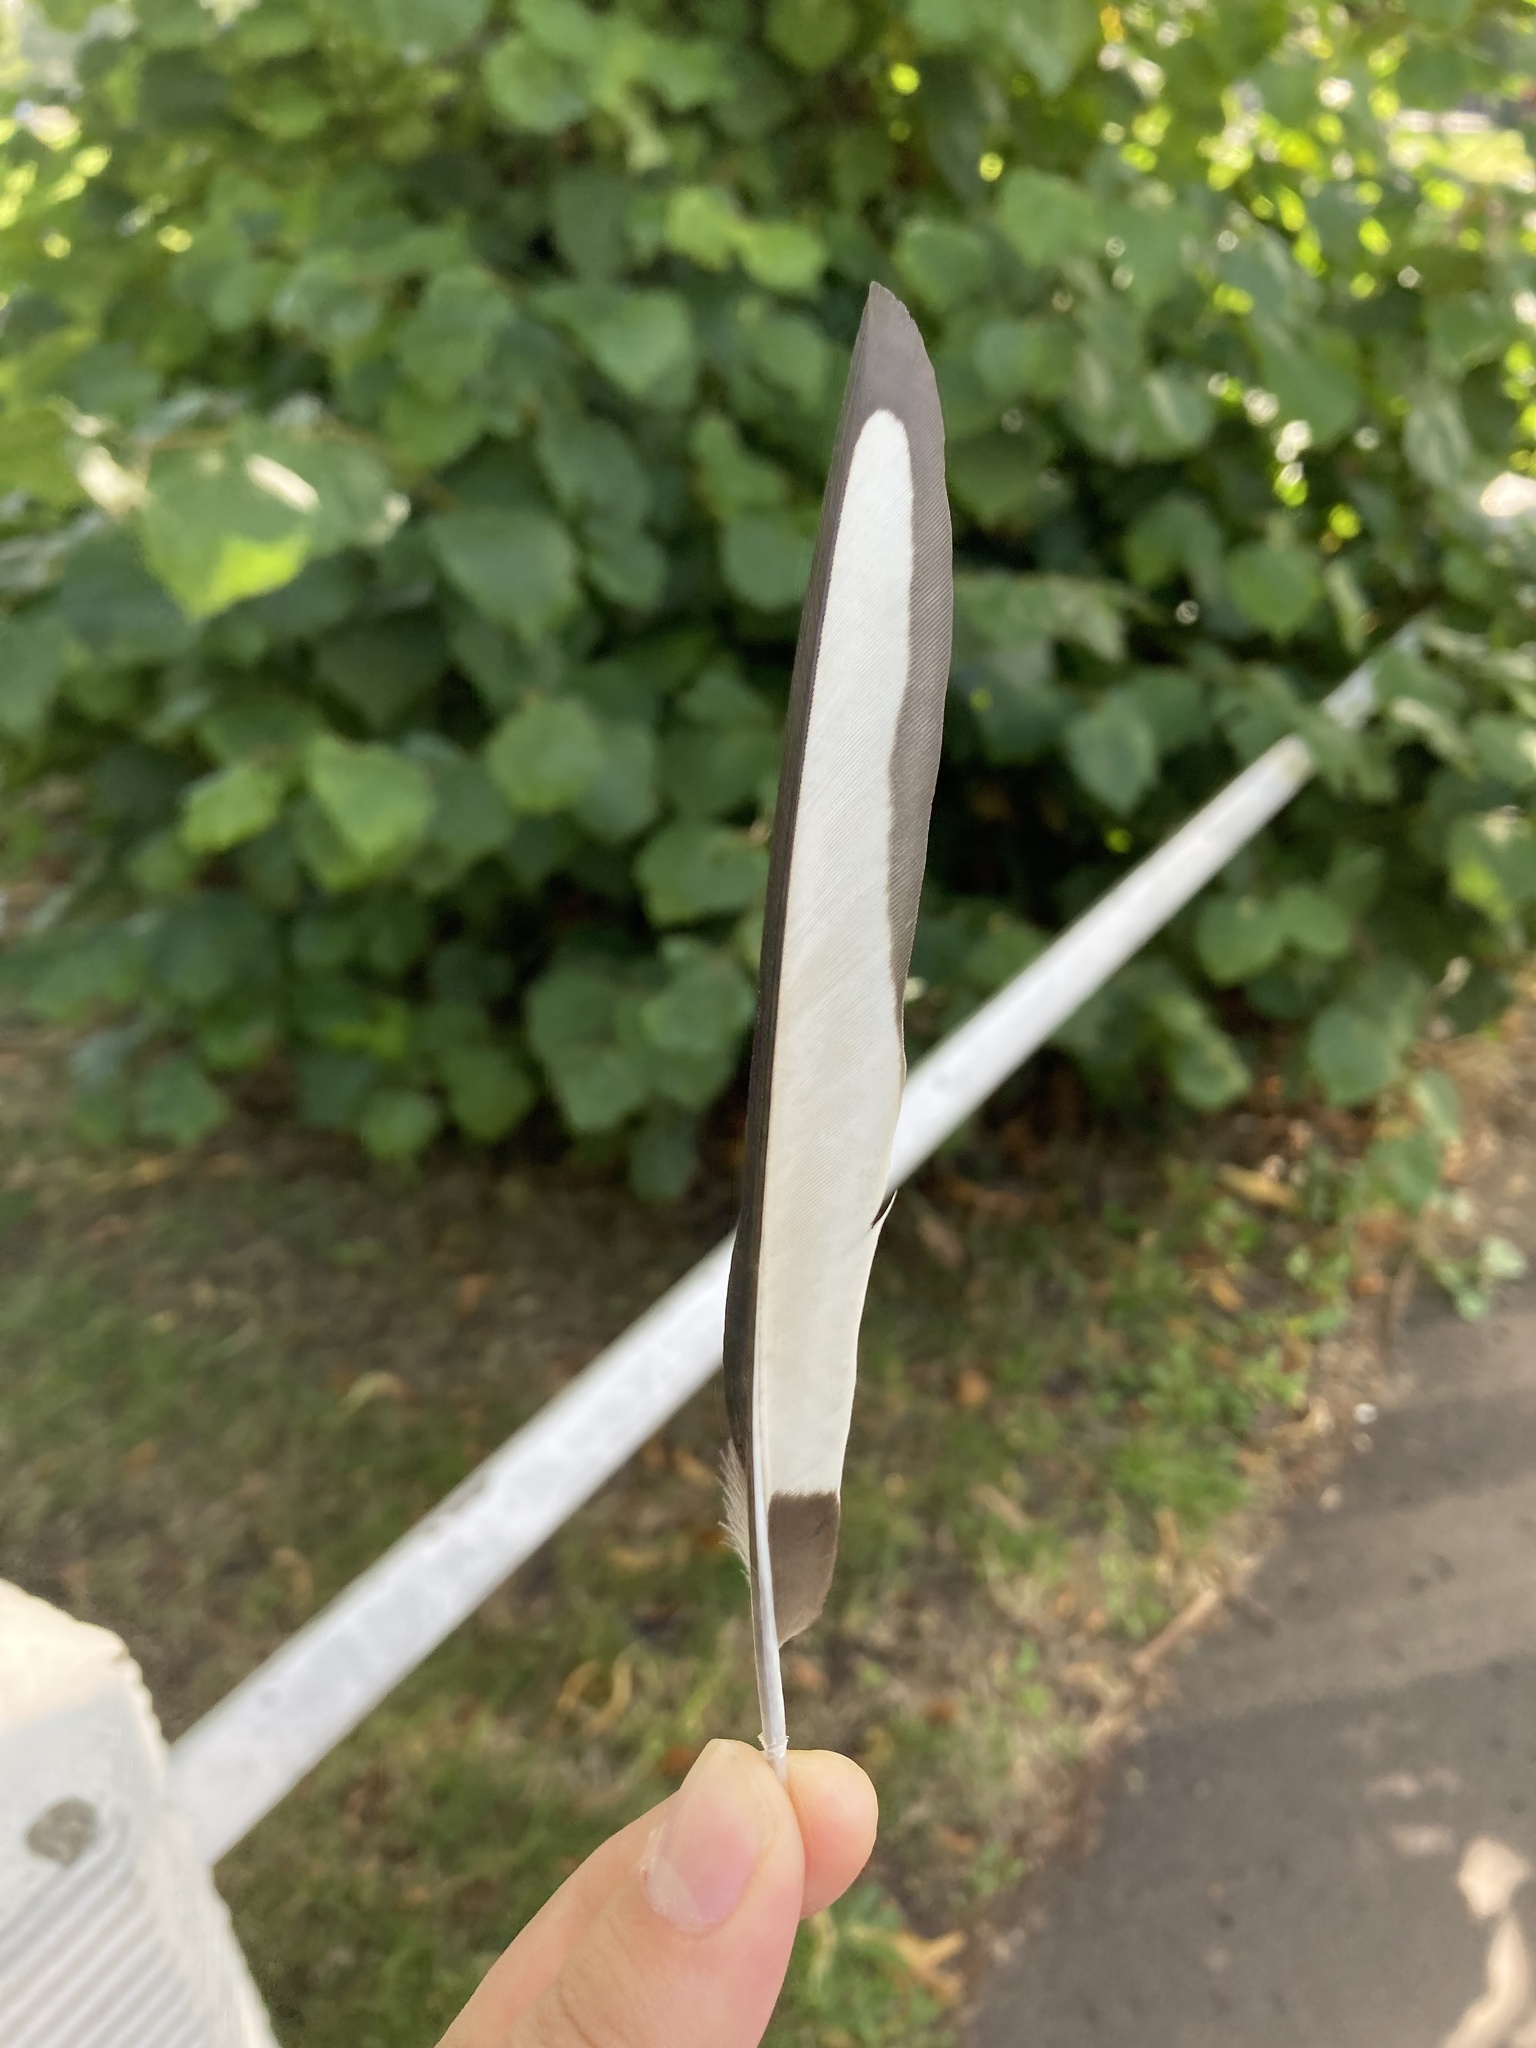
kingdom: Animalia
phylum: Chordata
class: Aves
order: Passeriformes
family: Corvidae
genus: Pica
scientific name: Pica pica
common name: Eurasian magpie
